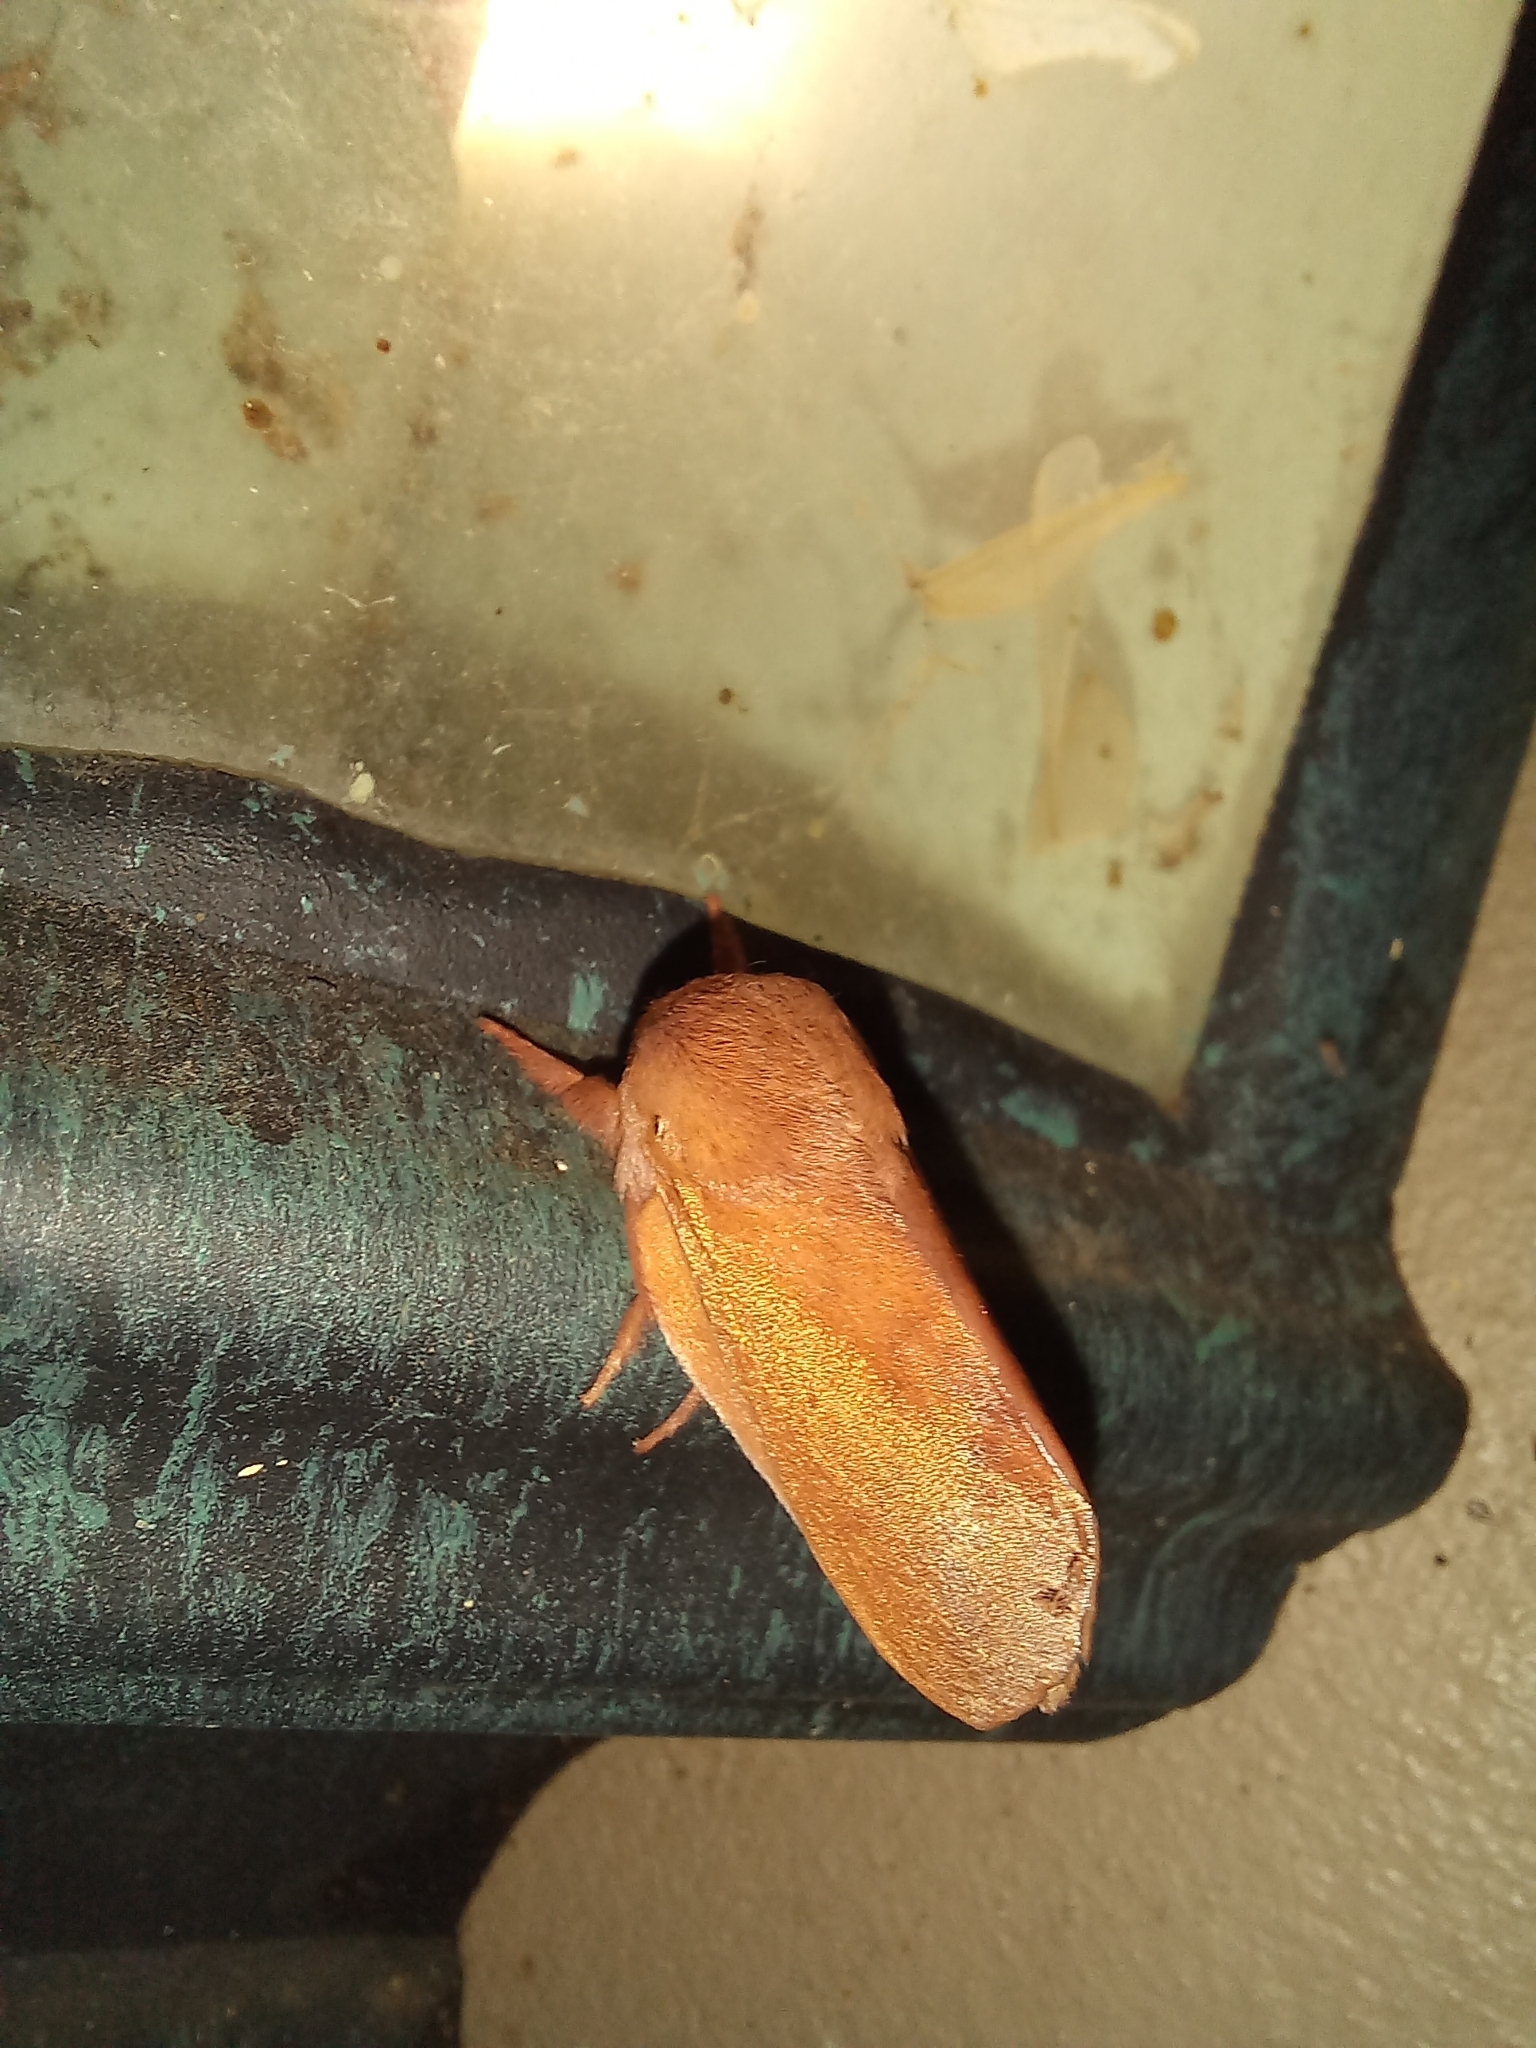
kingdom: Animalia
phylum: Arthropoda
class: Insecta
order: Lepidoptera
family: Limacodidae
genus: Micraphe
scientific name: Micraphe lateritia
